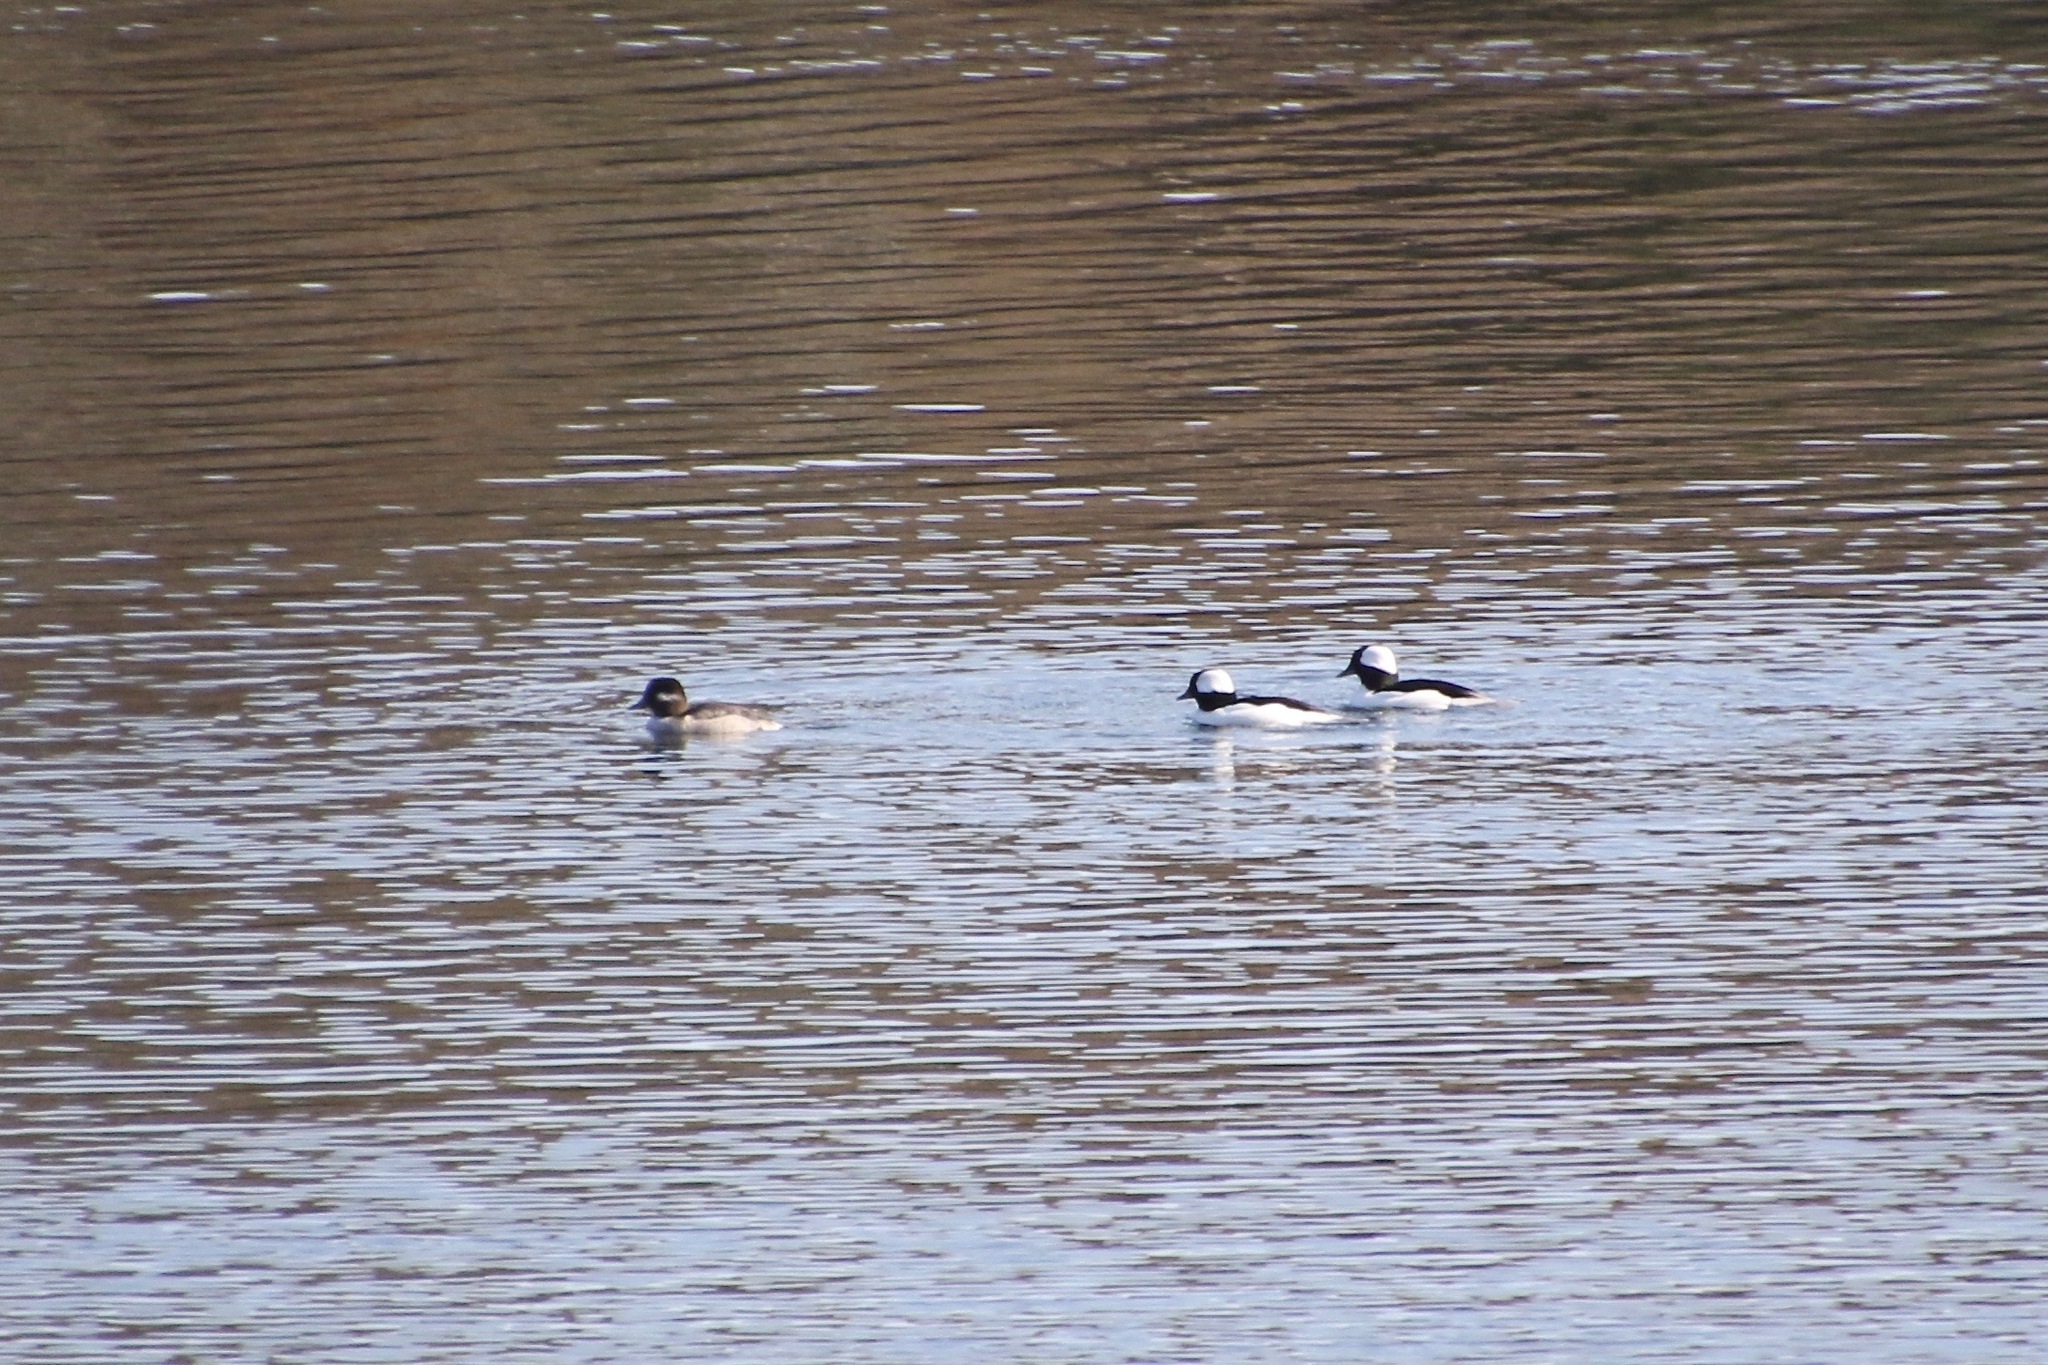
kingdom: Animalia
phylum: Chordata
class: Aves
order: Anseriformes
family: Anatidae
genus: Bucephala
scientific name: Bucephala albeola
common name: Bufflehead
